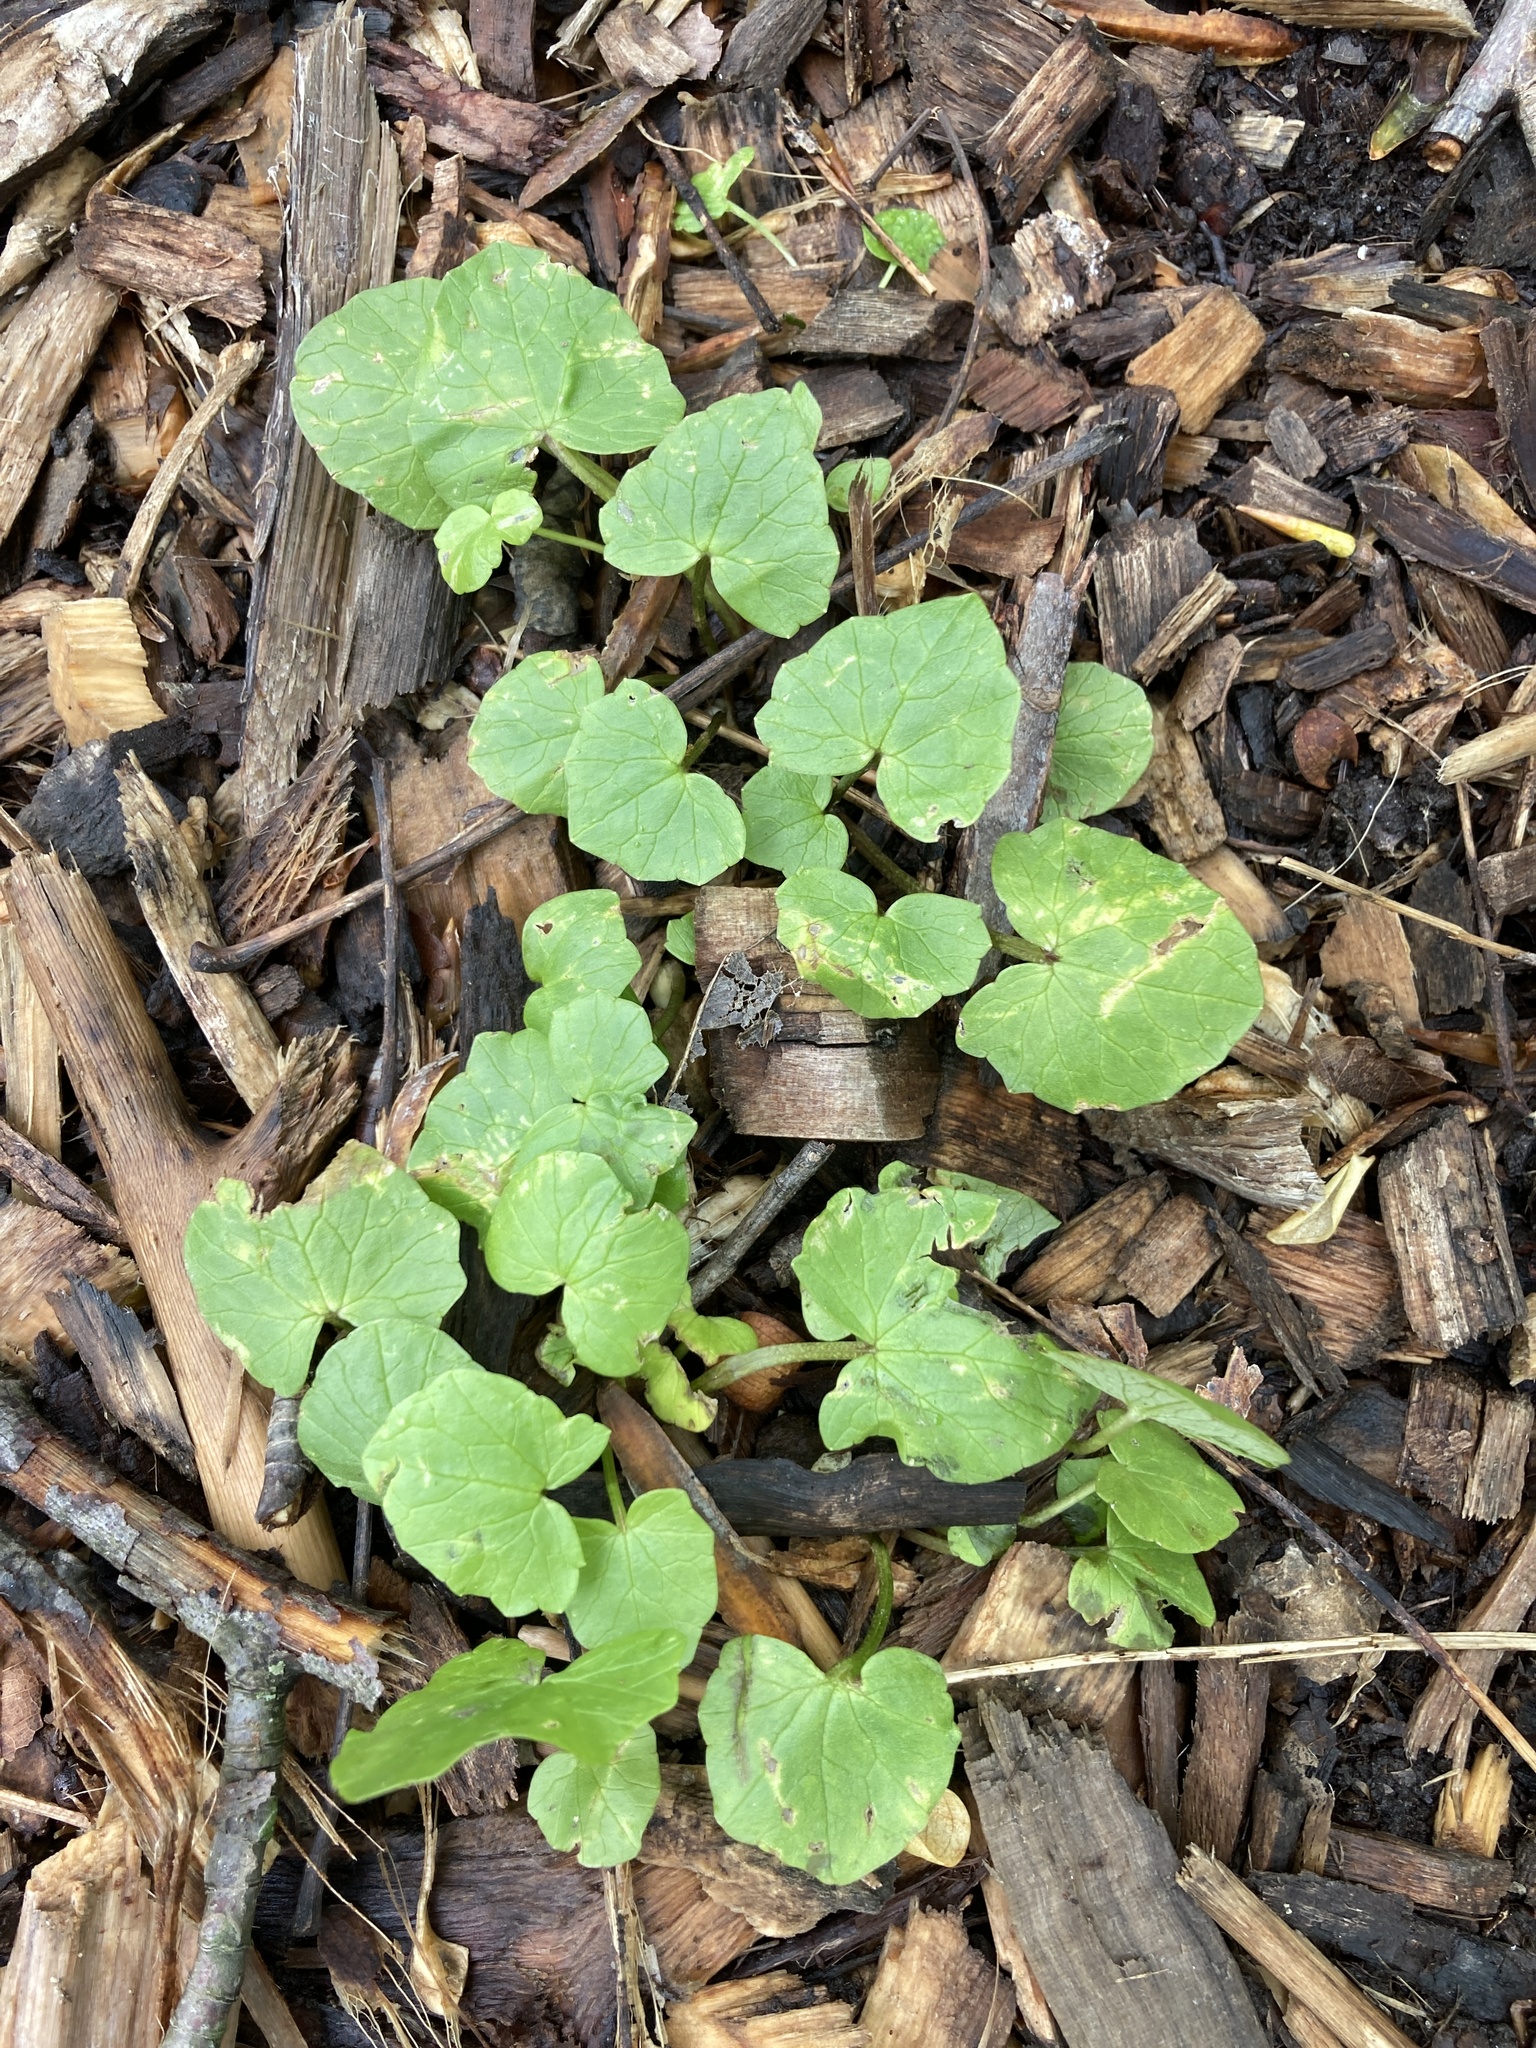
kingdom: Plantae
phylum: Tracheophyta
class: Magnoliopsida
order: Ranunculales
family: Ranunculaceae
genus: Ficaria
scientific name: Ficaria verna
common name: Lesser celandine
